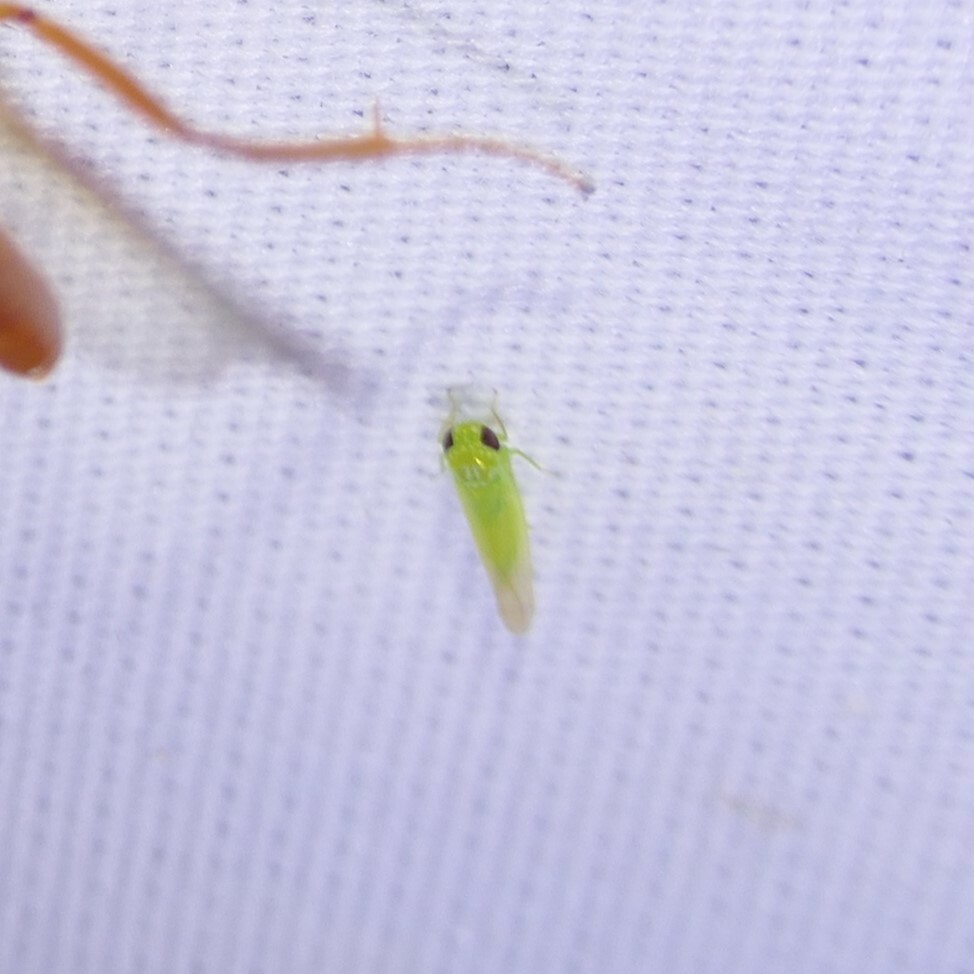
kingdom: Animalia
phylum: Arthropoda
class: Insecta
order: Hemiptera
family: Cicadellidae
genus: Empoasca
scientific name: Empoasca fabae
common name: Potato leafhopper
